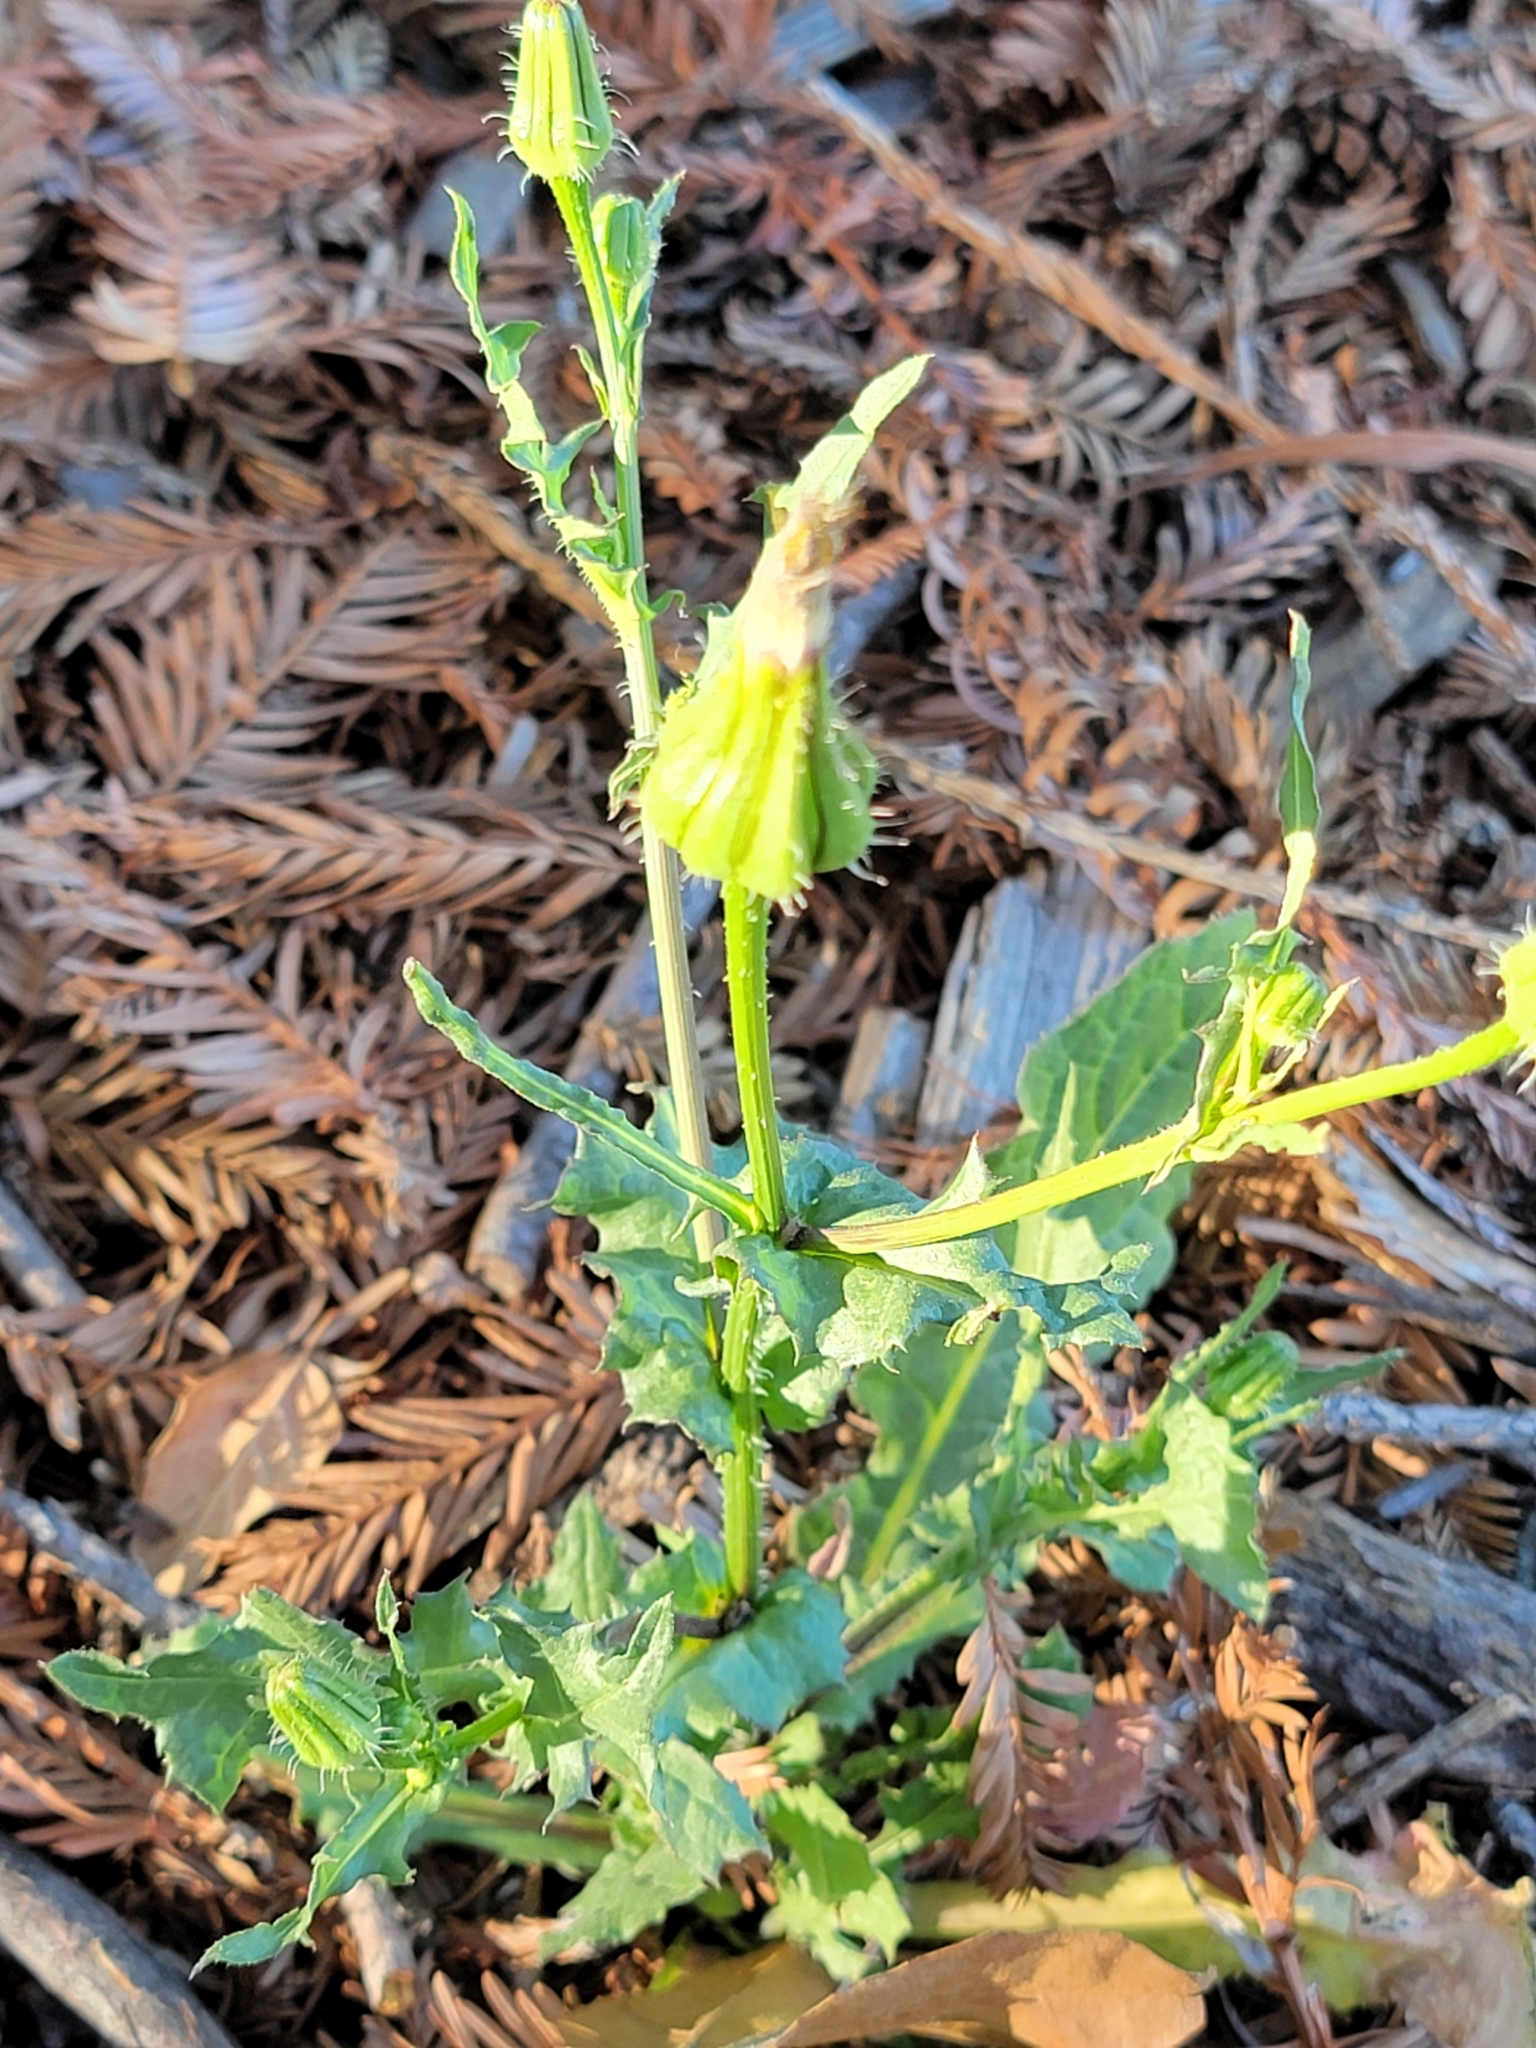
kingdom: Plantae
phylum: Tracheophyta
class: Magnoliopsida
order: Asterales
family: Asteraceae
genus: Urospermum
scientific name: Urospermum picroides
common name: False hawkbit
